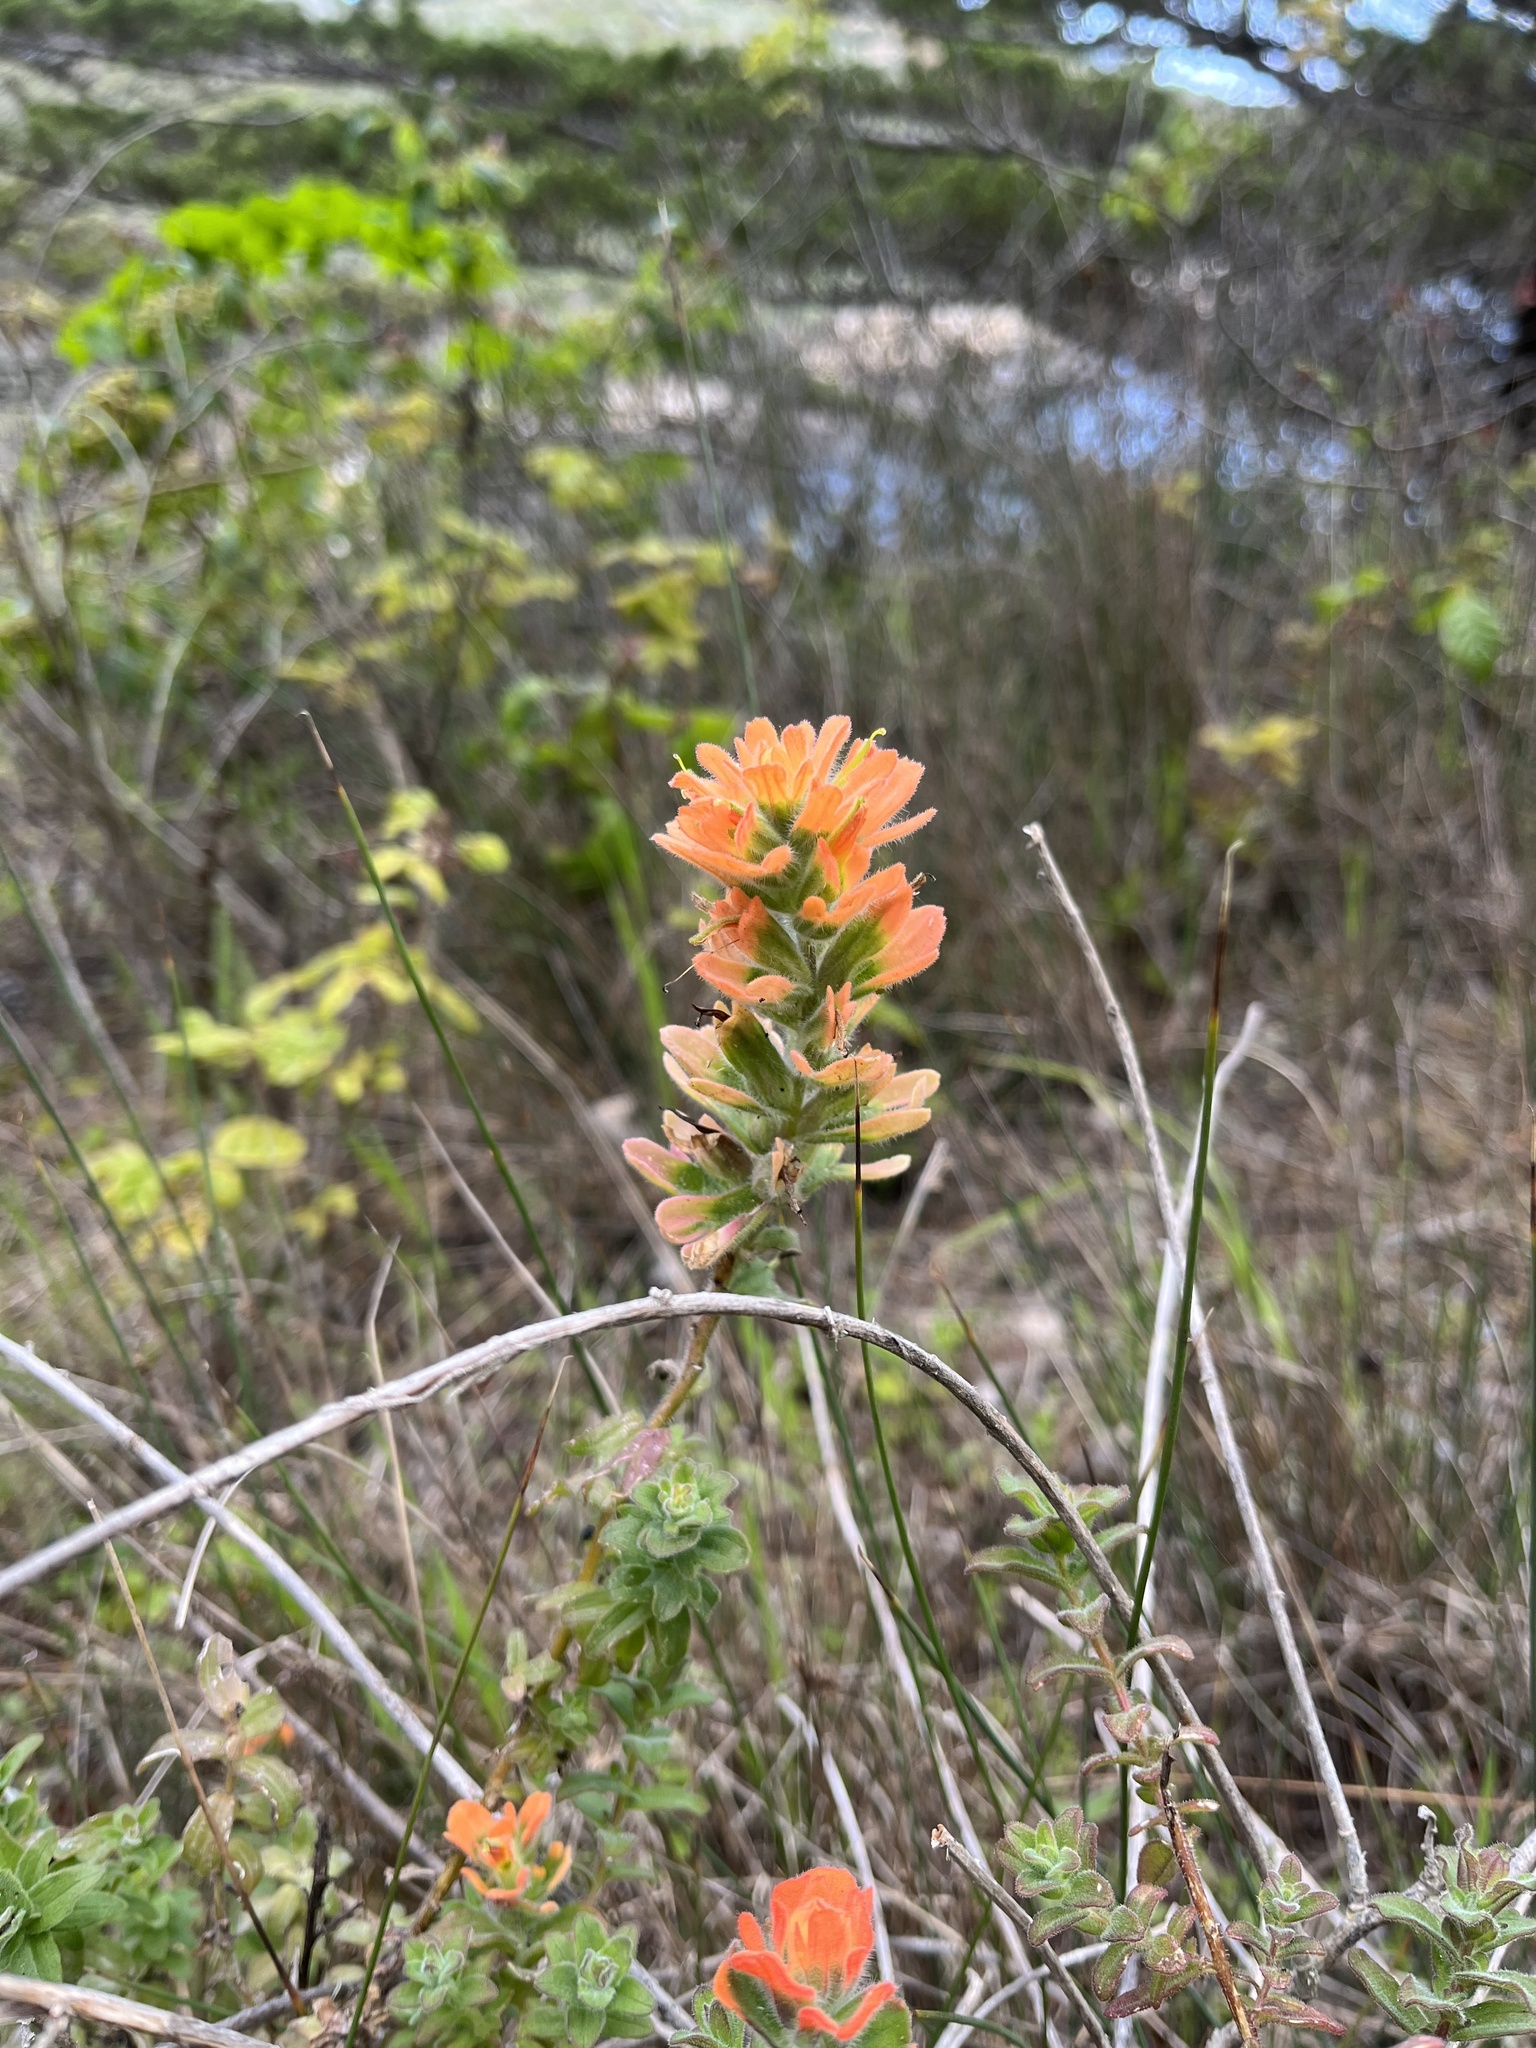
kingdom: Plantae
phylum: Tracheophyta
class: Magnoliopsida
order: Lamiales
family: Orobanchaceae
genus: Castilleja
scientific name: Castilleja latifolia
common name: Monterey indian paintbrush
